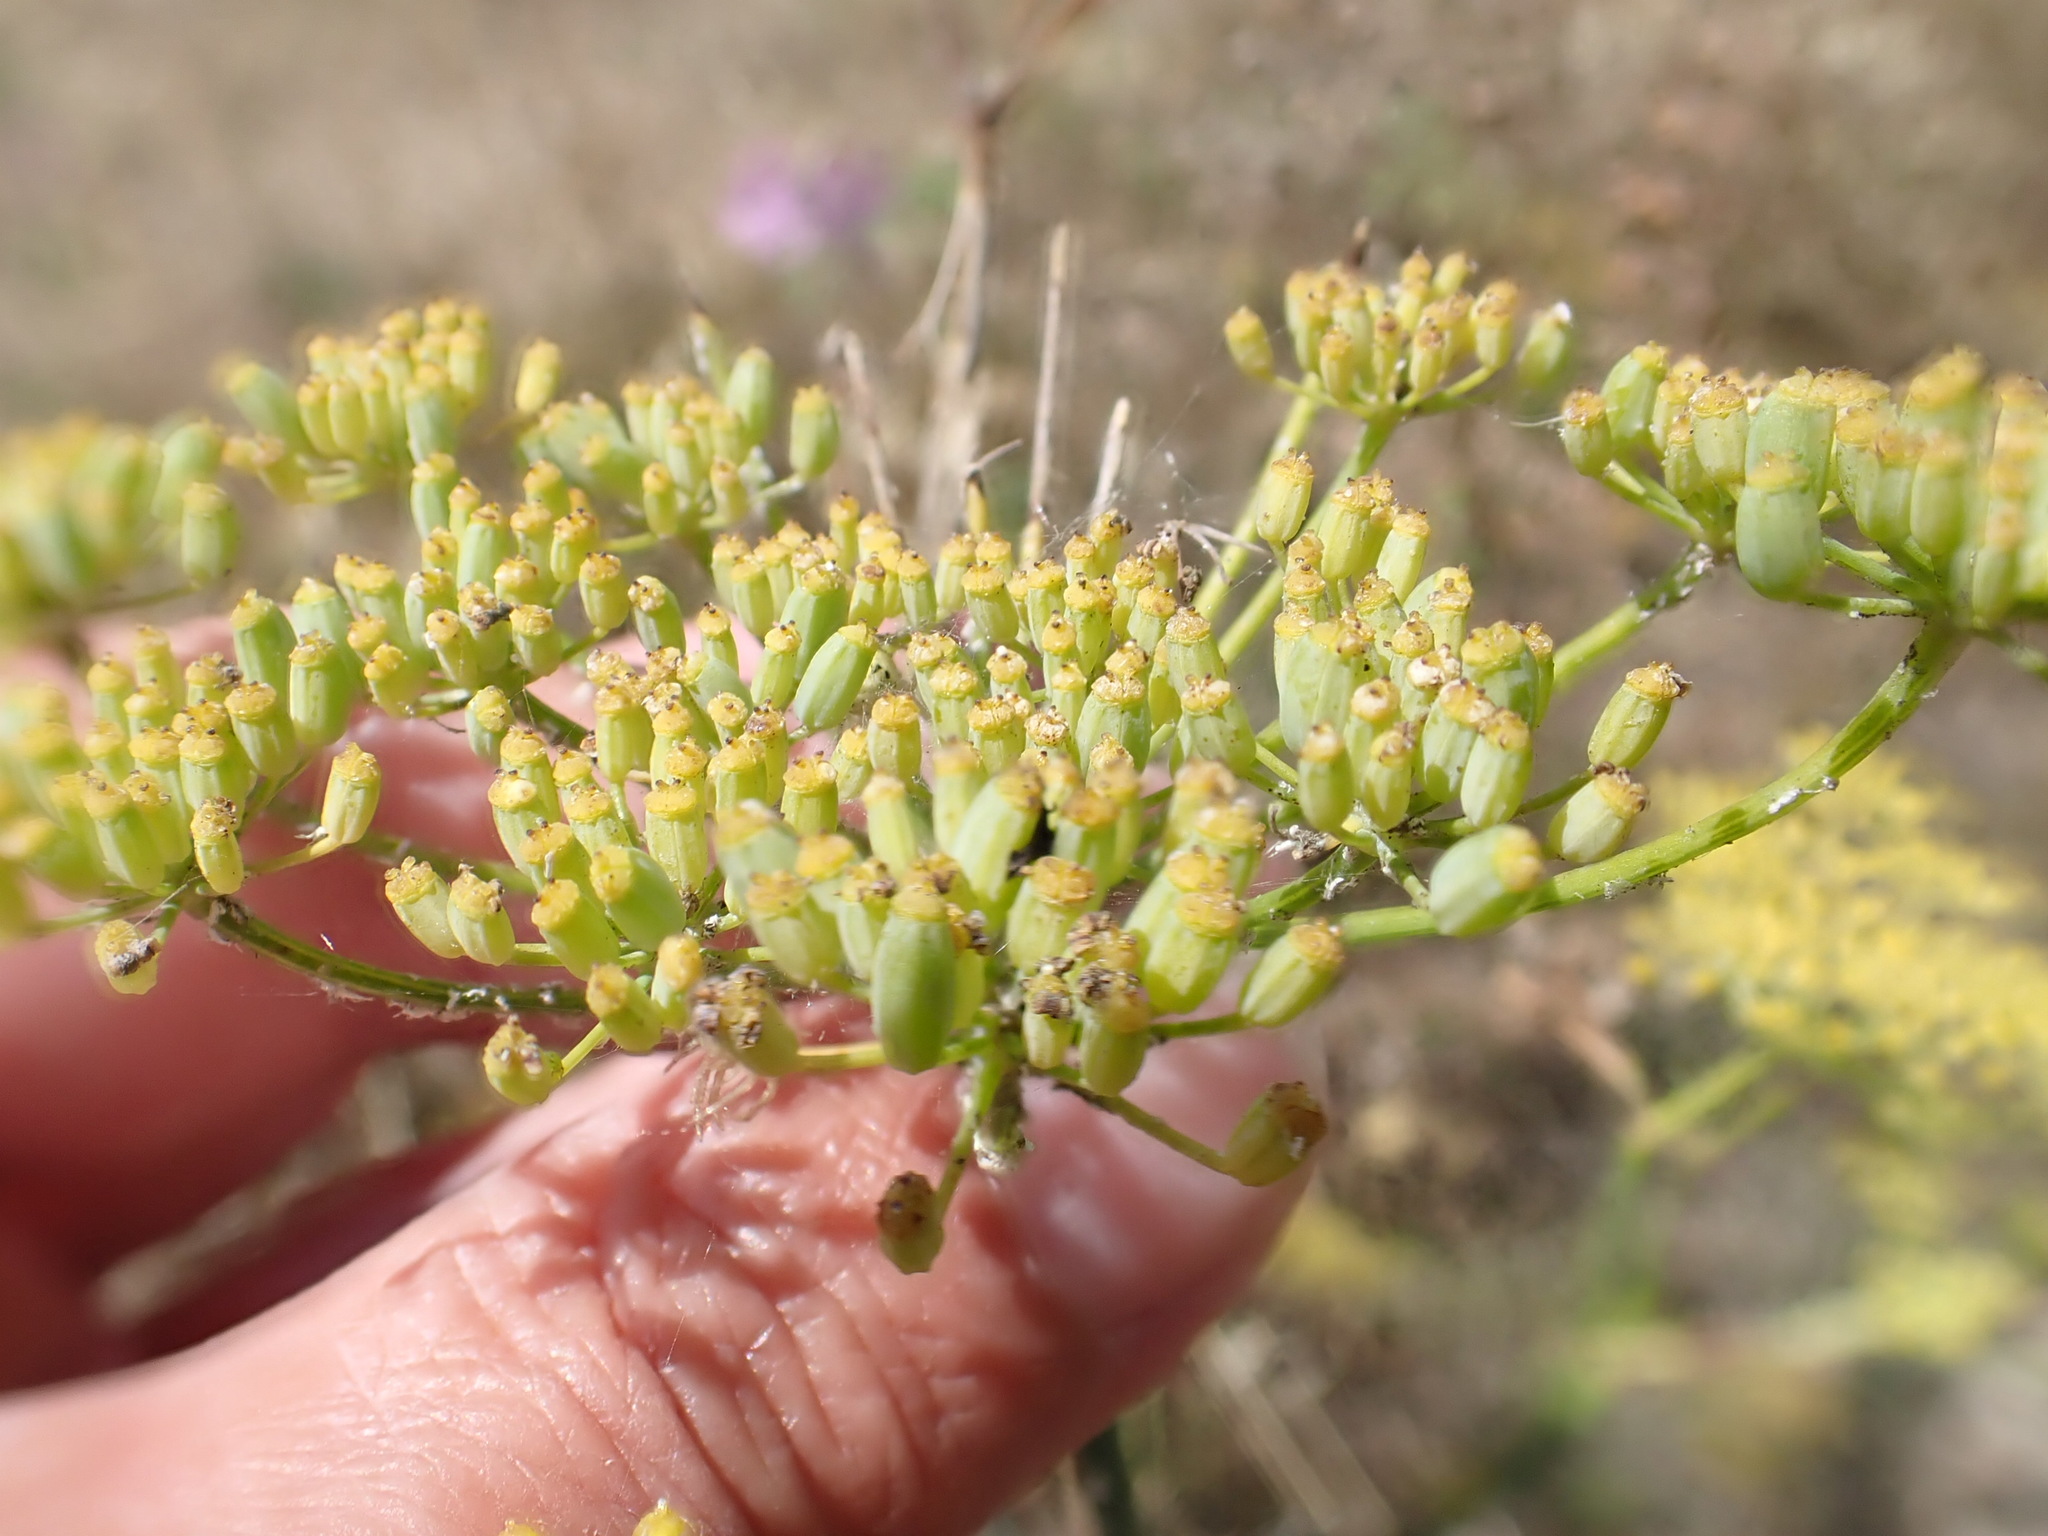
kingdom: Plantae
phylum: Tracheophyta
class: Magnoliopsida
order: Apiales
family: Apiaceae
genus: Foeniculum
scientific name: Foeniculum vulgare
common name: Fennel
